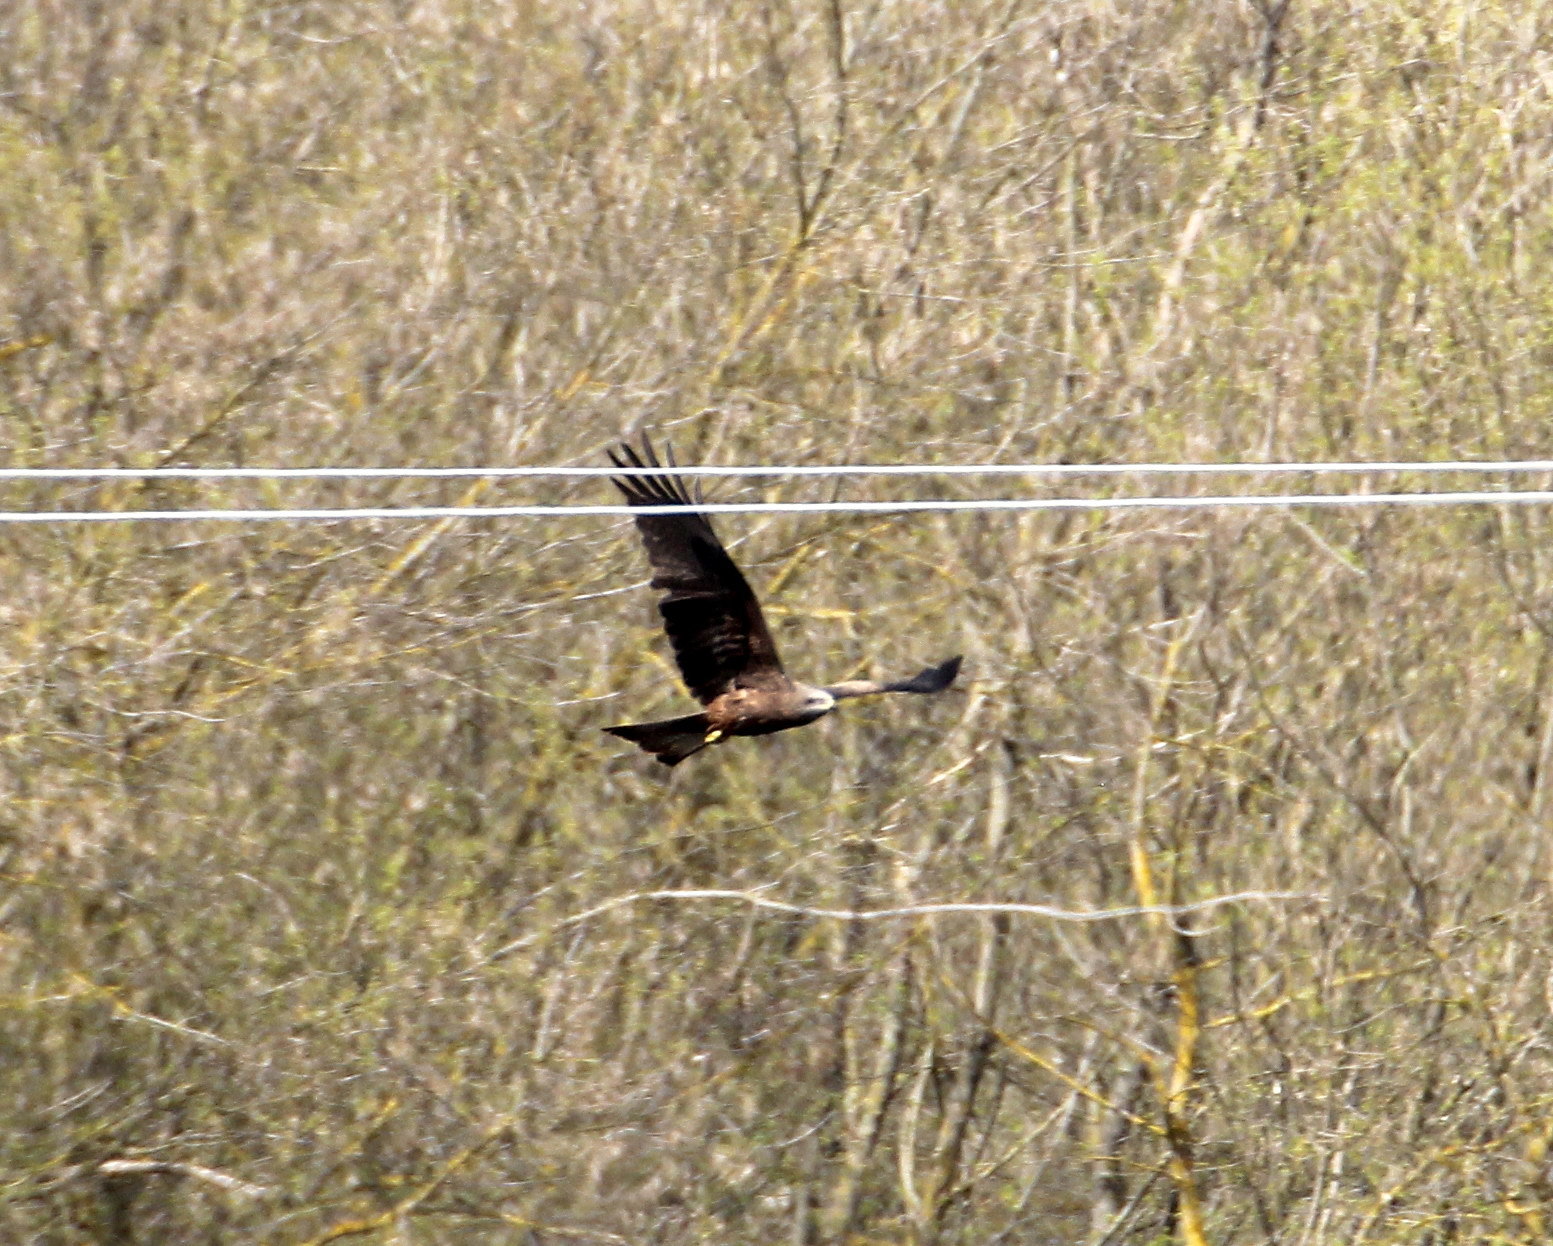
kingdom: Animalia
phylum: Chordata
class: Aves
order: Accipitriformes
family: Accipitridae
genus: Milvus
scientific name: Milvus migrans
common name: Black kite
